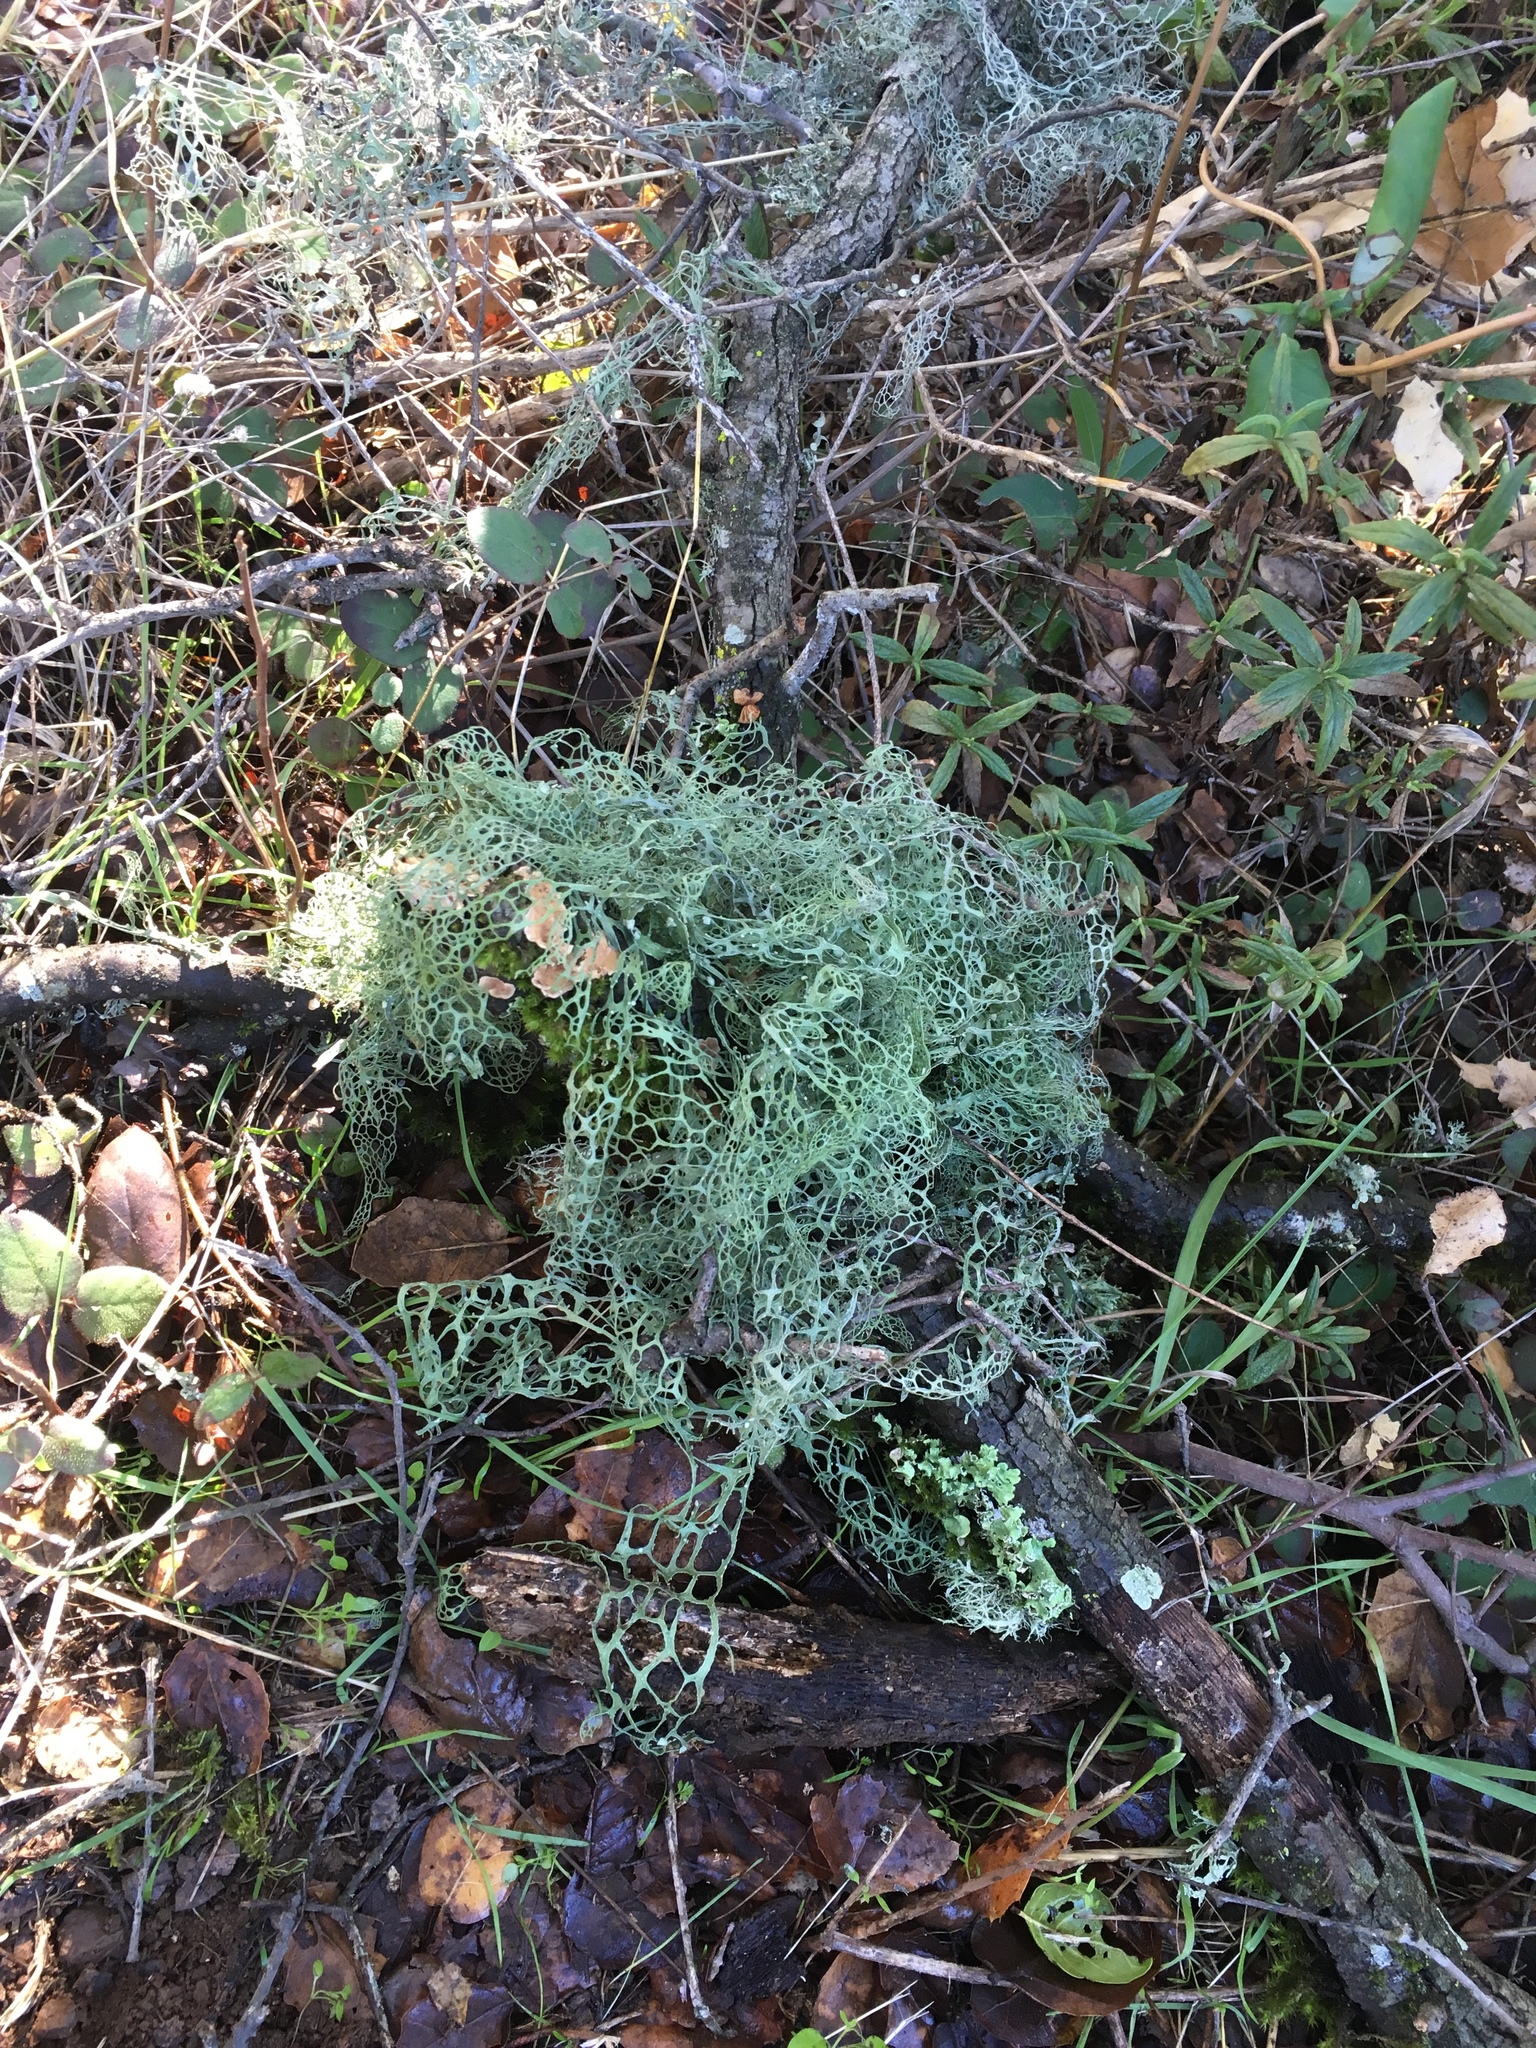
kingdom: Fungi
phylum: Ascomycota
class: Lecanoromycetes
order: Lecanorales
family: Ramalinaceae
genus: Ramalina
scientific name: Ramalina menziesii
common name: Lace lichen
